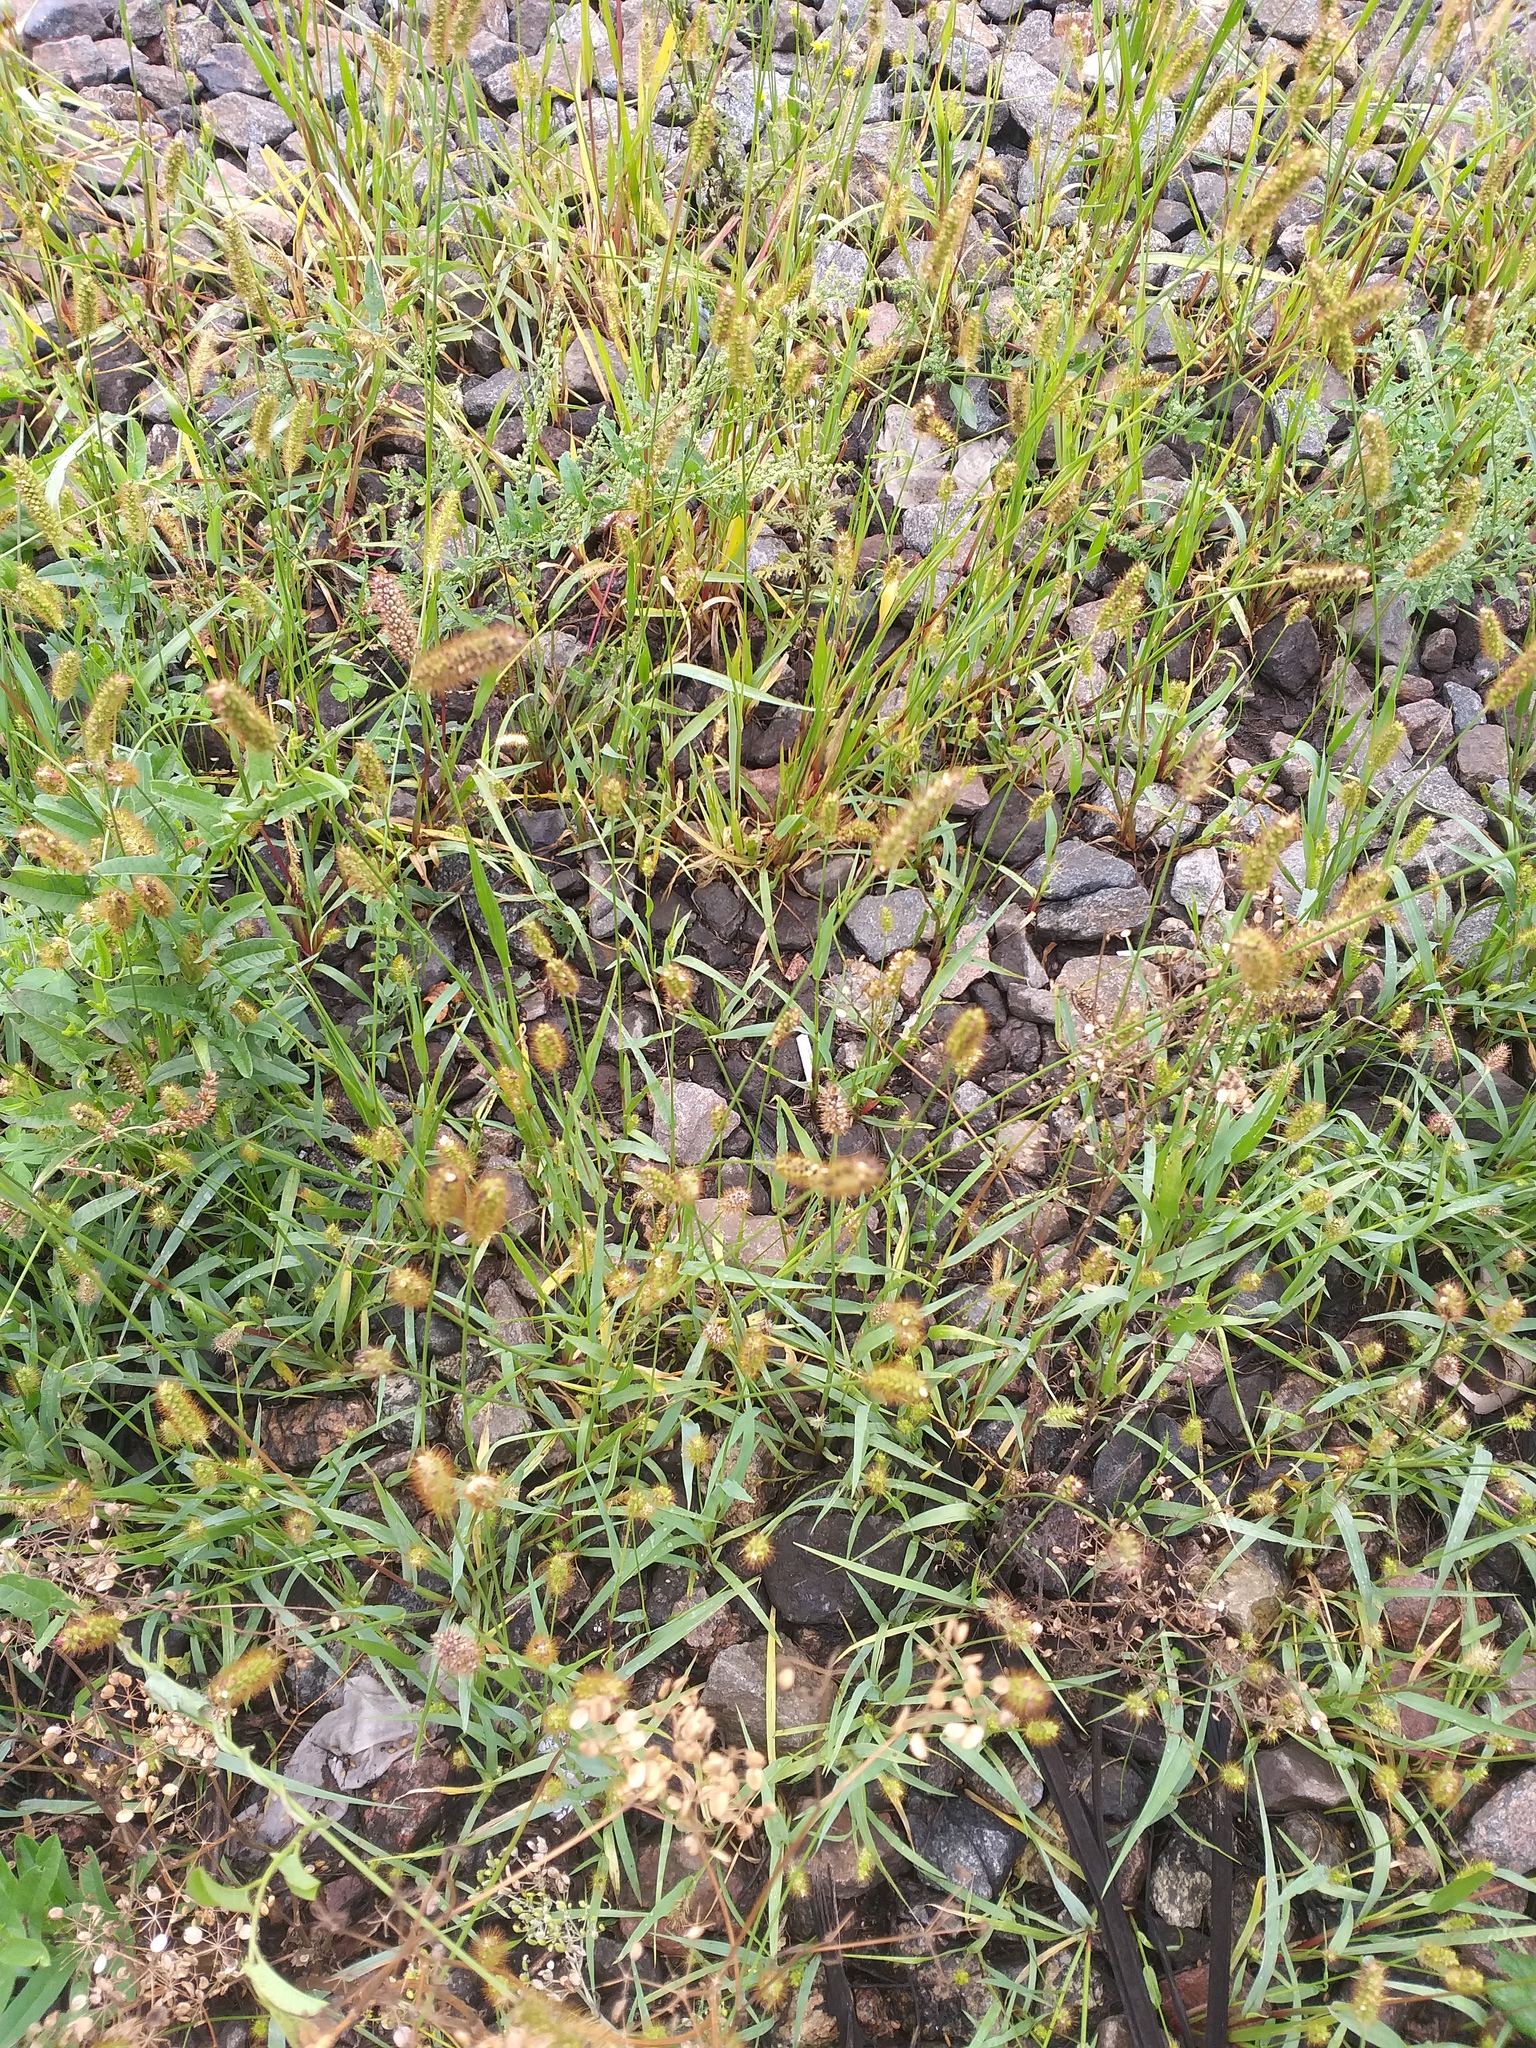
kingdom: Plantae
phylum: Tracheophyta
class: Liliopsida
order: Poales
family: Poaceae
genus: Setaria
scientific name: Setaria pumila
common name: Yellow bristle-grass
